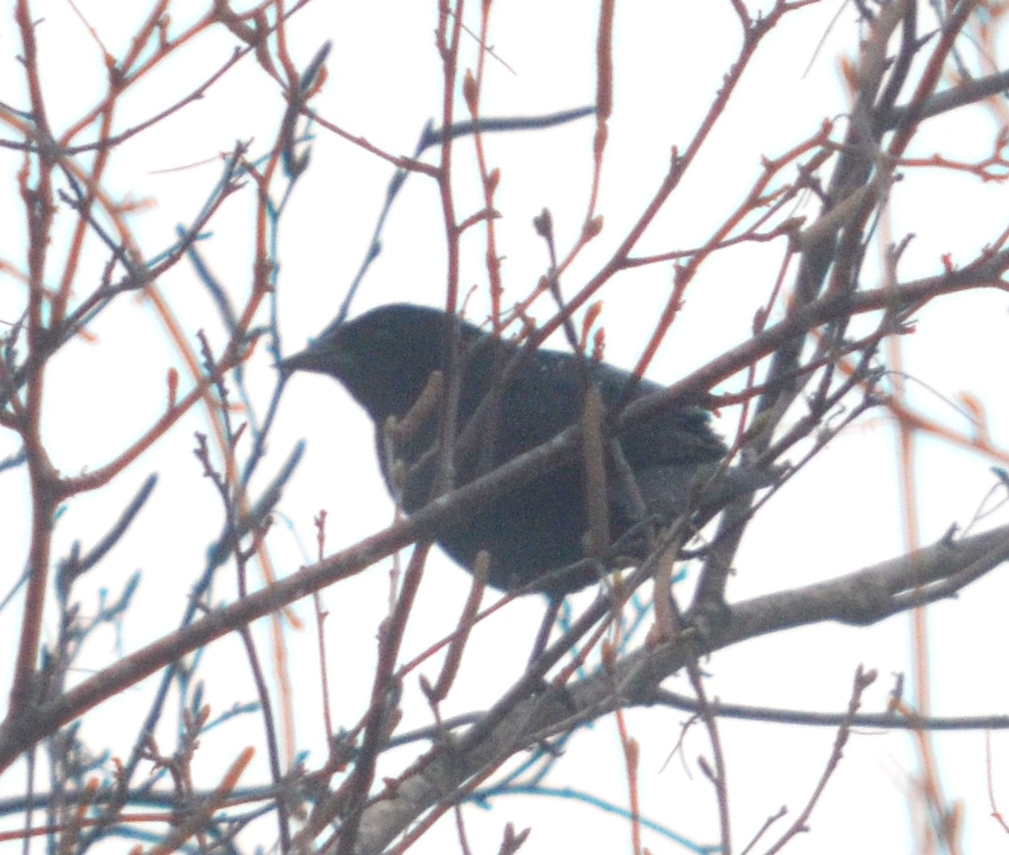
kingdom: Animalia
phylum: Chordata
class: Aves
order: Passeriformes
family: Icteridae
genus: Quiscalus
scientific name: Quiscalus quiscula
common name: Common grackle
